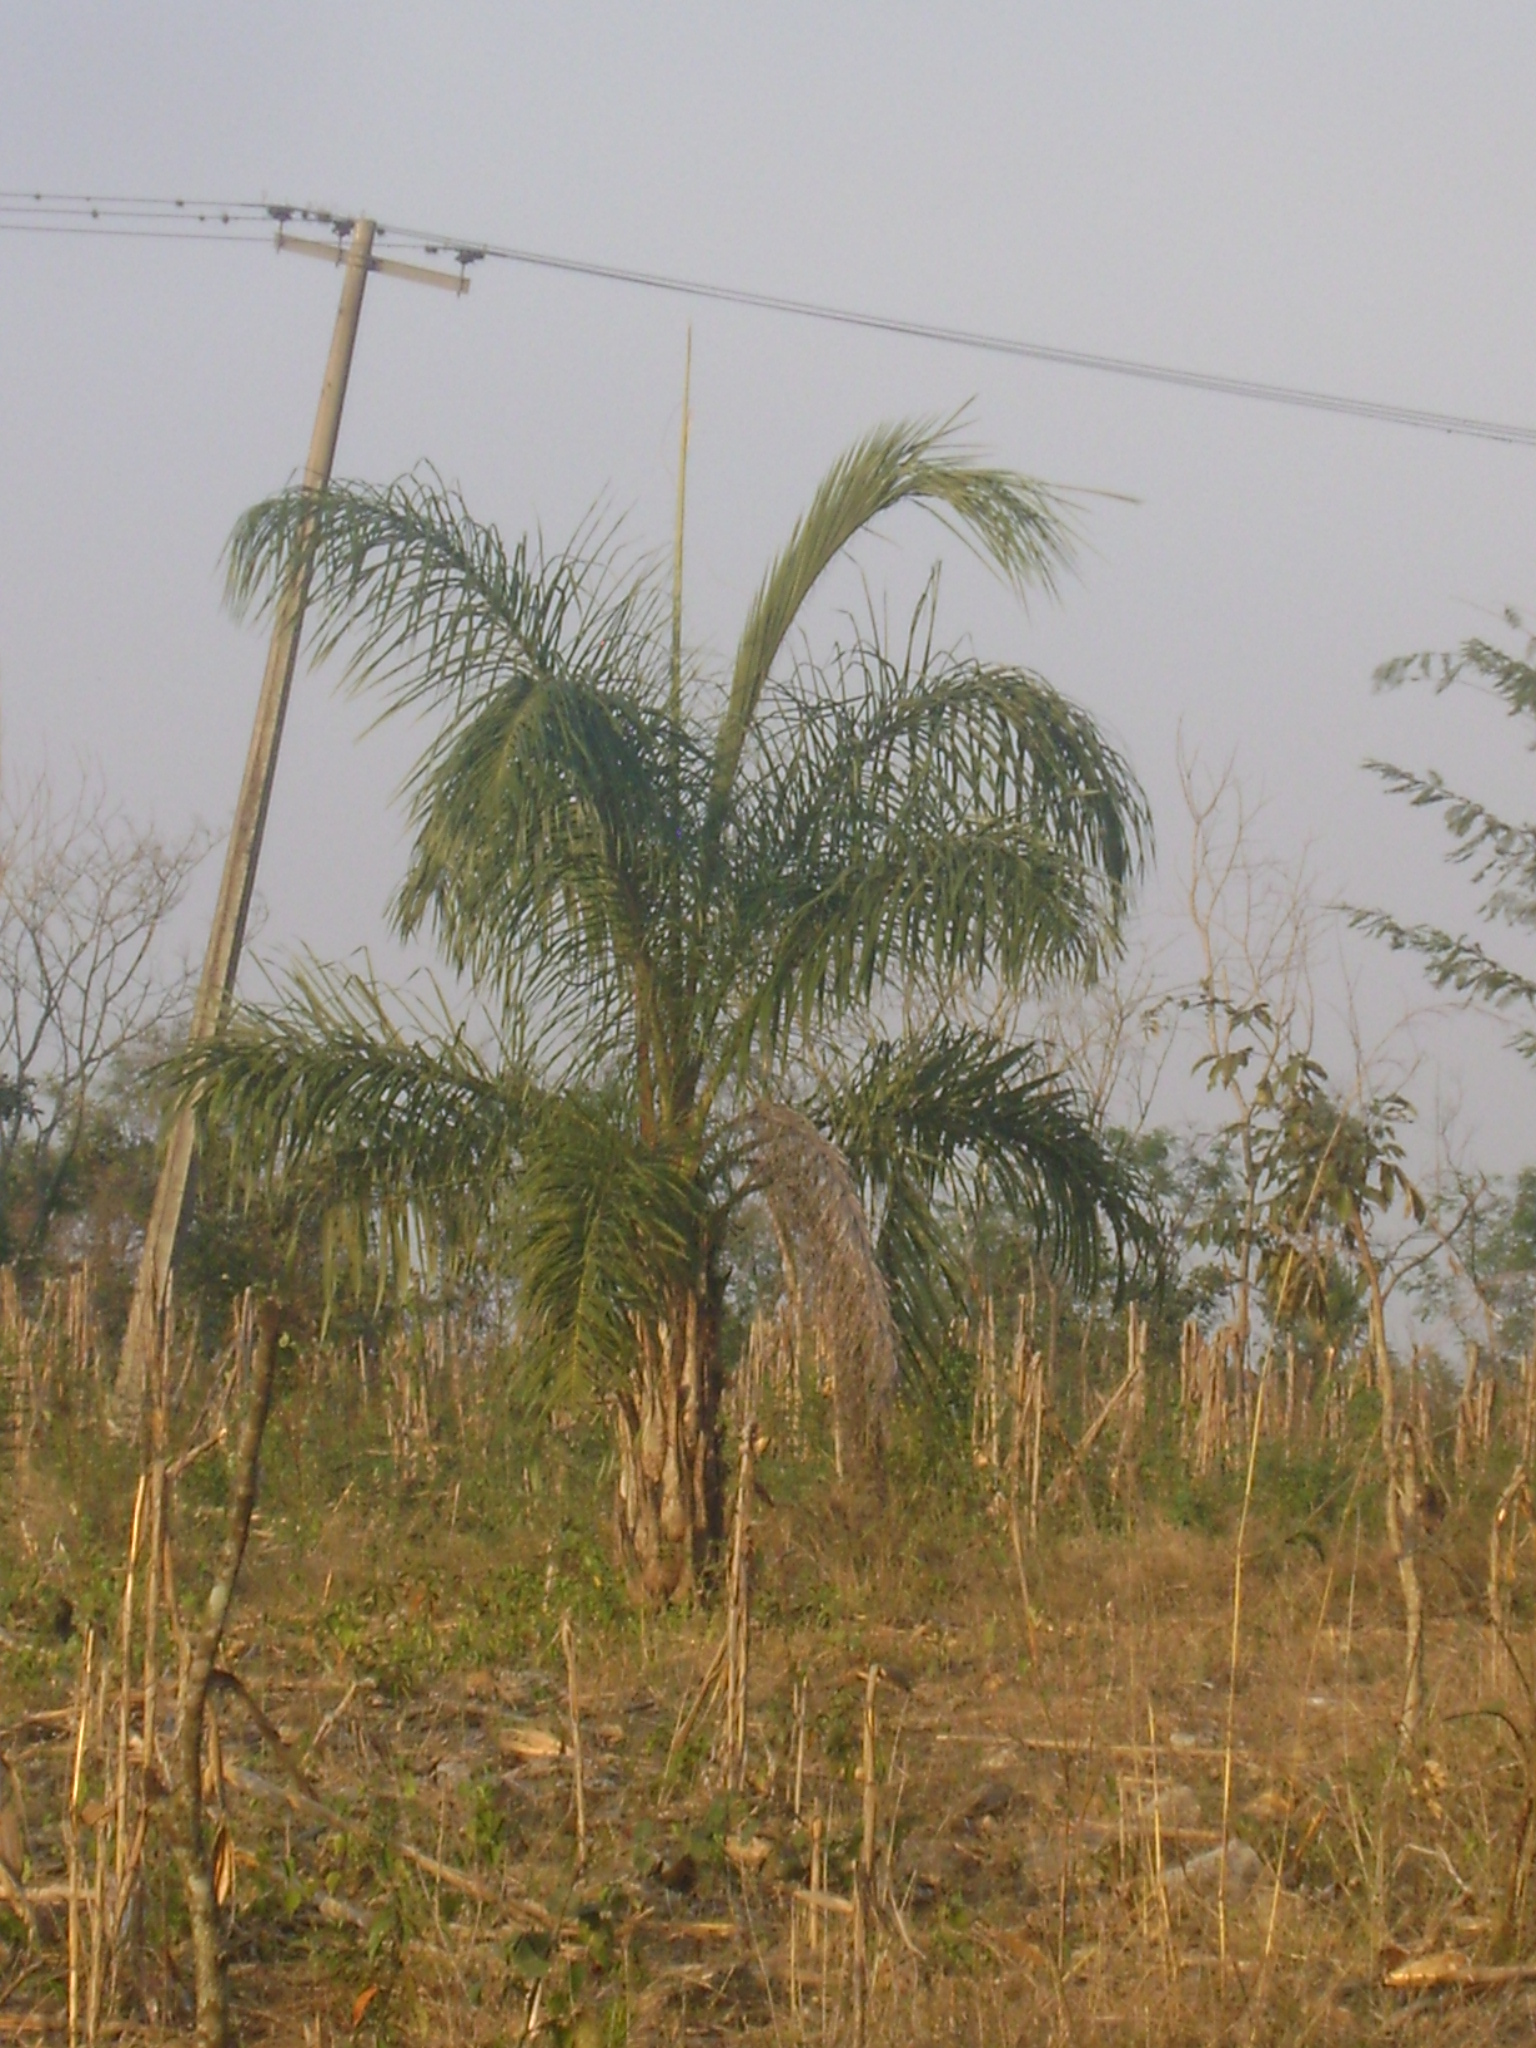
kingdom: Plantae
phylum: Tracheophyta
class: Liliopsida
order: Arecales
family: Arecaceae
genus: Acrocomia
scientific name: Acrocomia aculeata
